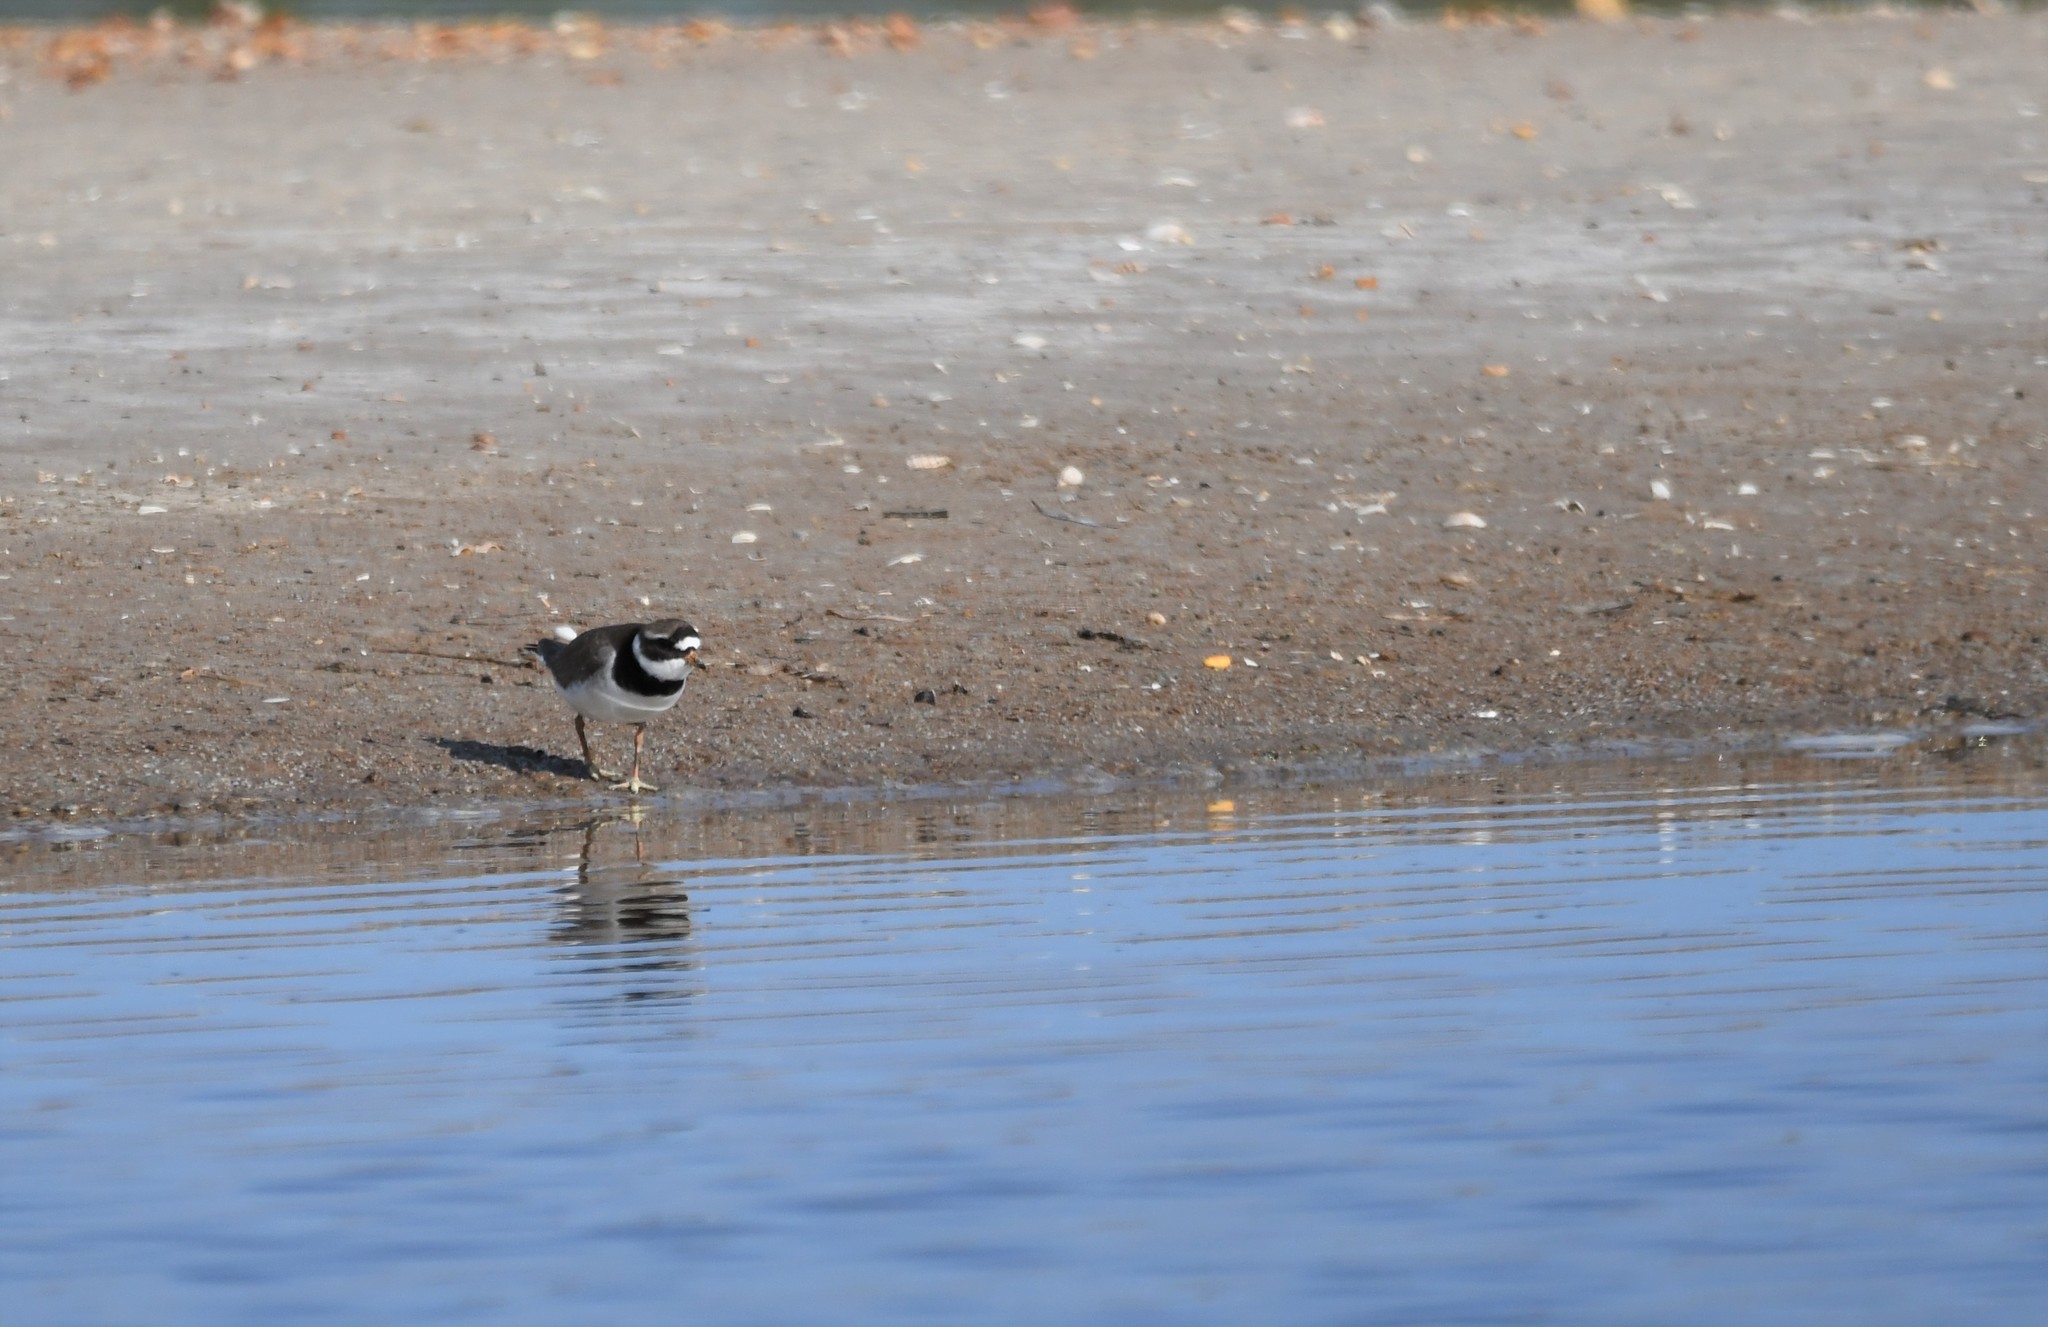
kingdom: Animalia
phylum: Chordata
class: Aves
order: Charadriiformes
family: Charadriidae
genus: Charadrius
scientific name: Charadrius hiaticula
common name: Common ringed plover
